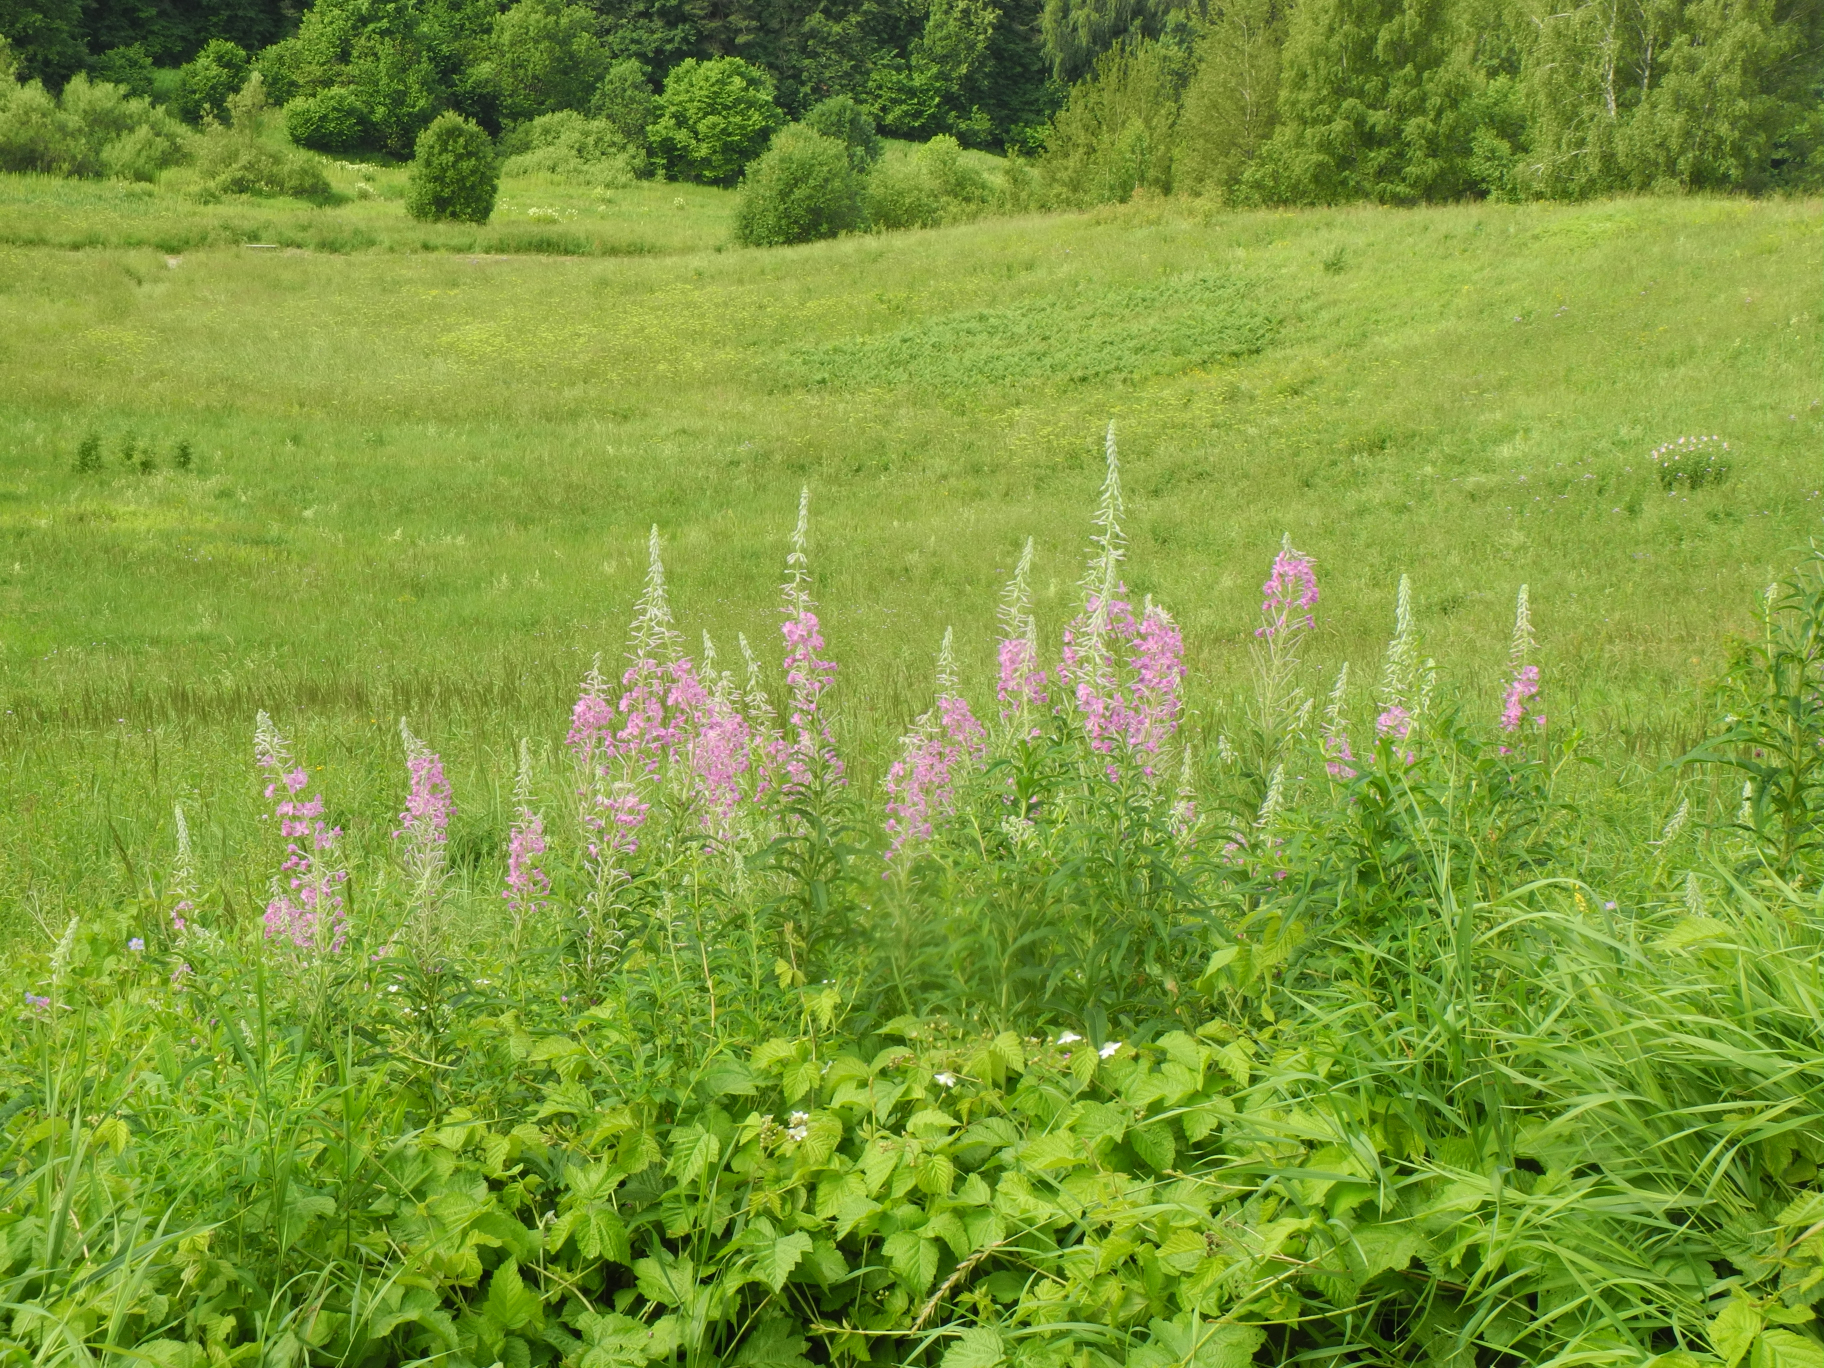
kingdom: Plantae
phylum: Tracheophyta
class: Magnoliopsida
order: Myrtales
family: Onagraceae
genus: Chamaenerion
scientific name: Chamaenerion angustifolium
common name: Fireweed
